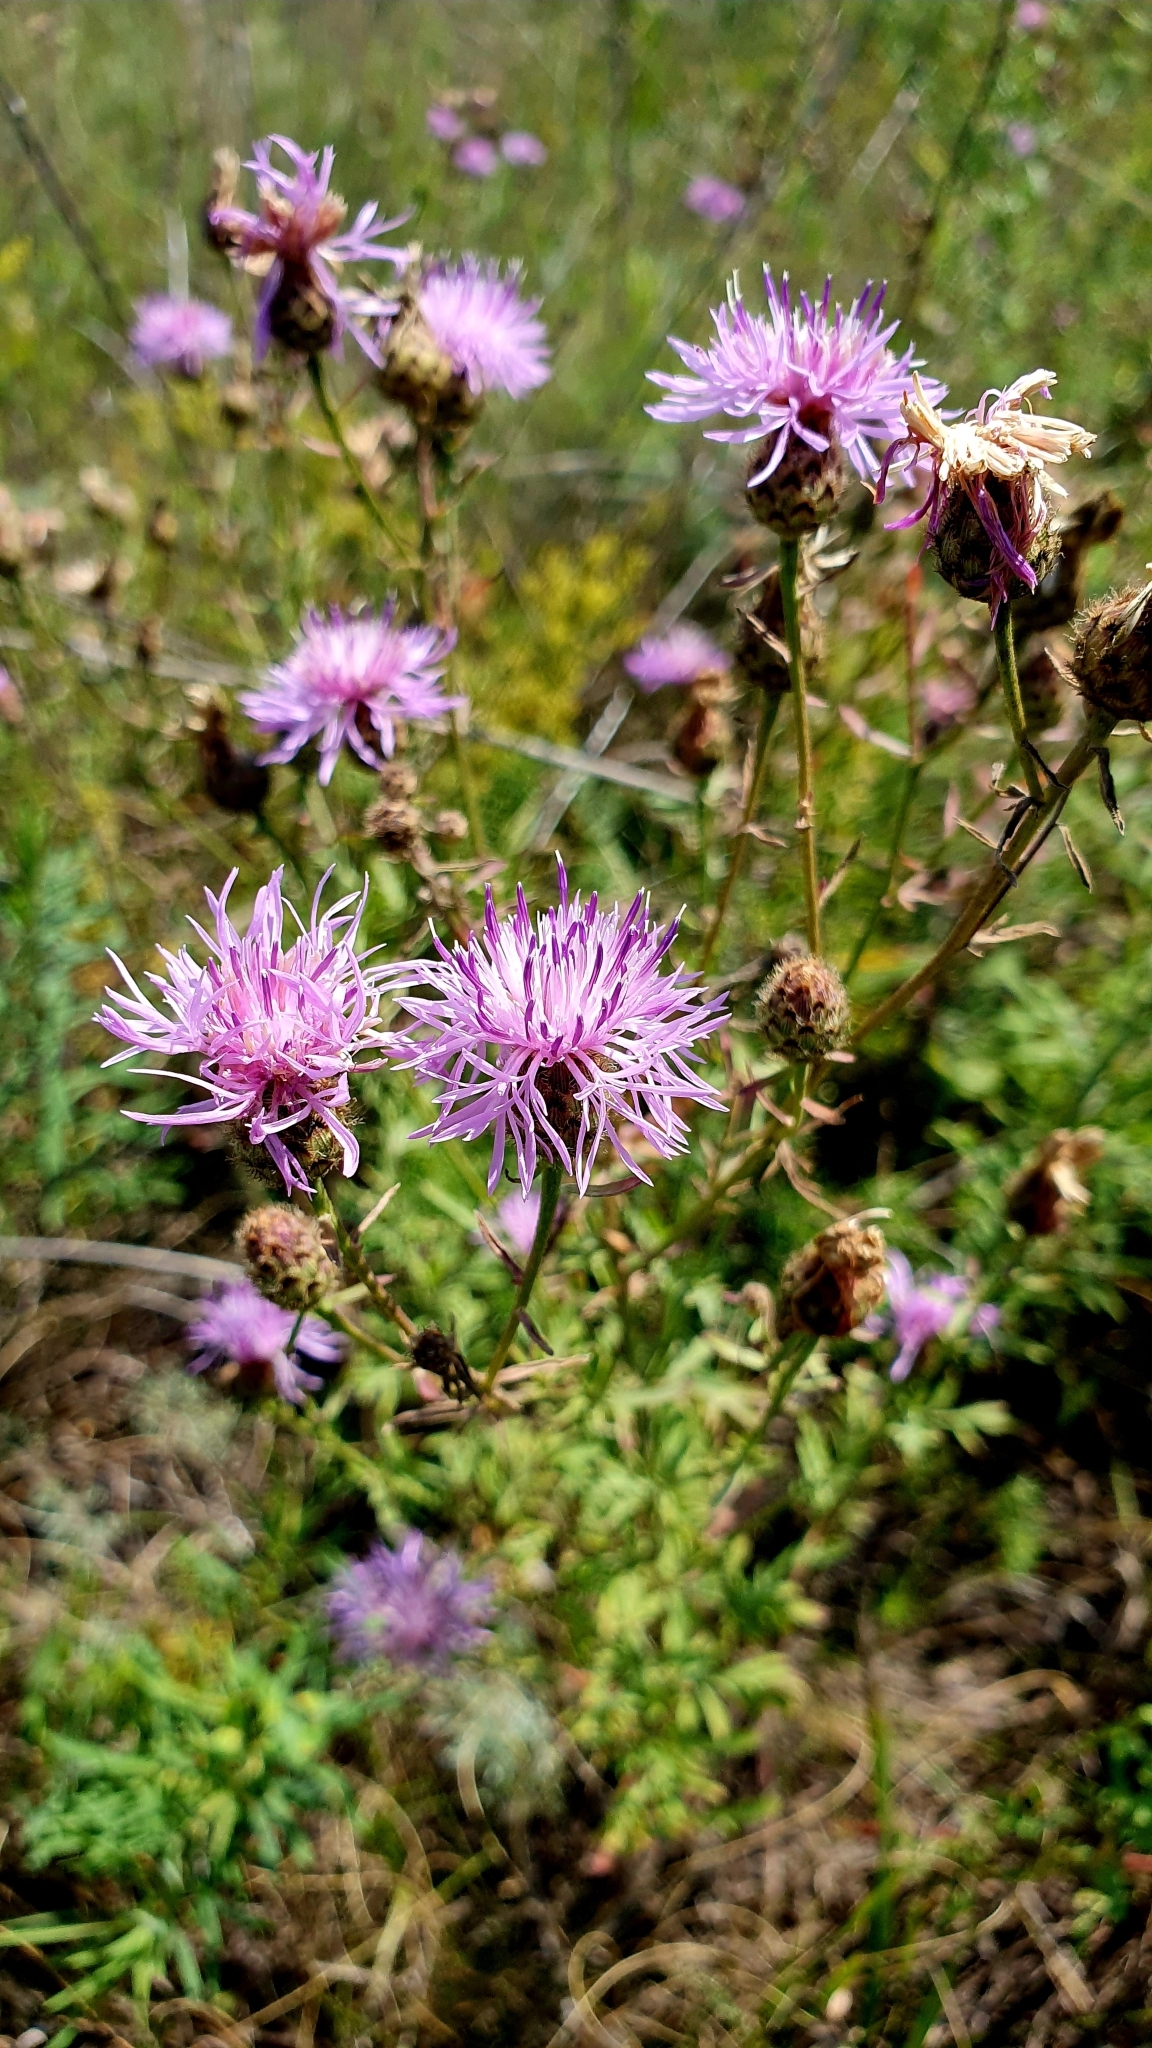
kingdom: Plantae
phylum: Tracheophyta
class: Magnoliopsida
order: Asterales
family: Asteraceae
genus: Centaurea
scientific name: Centaurea stoebe
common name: Spotted knapweed
